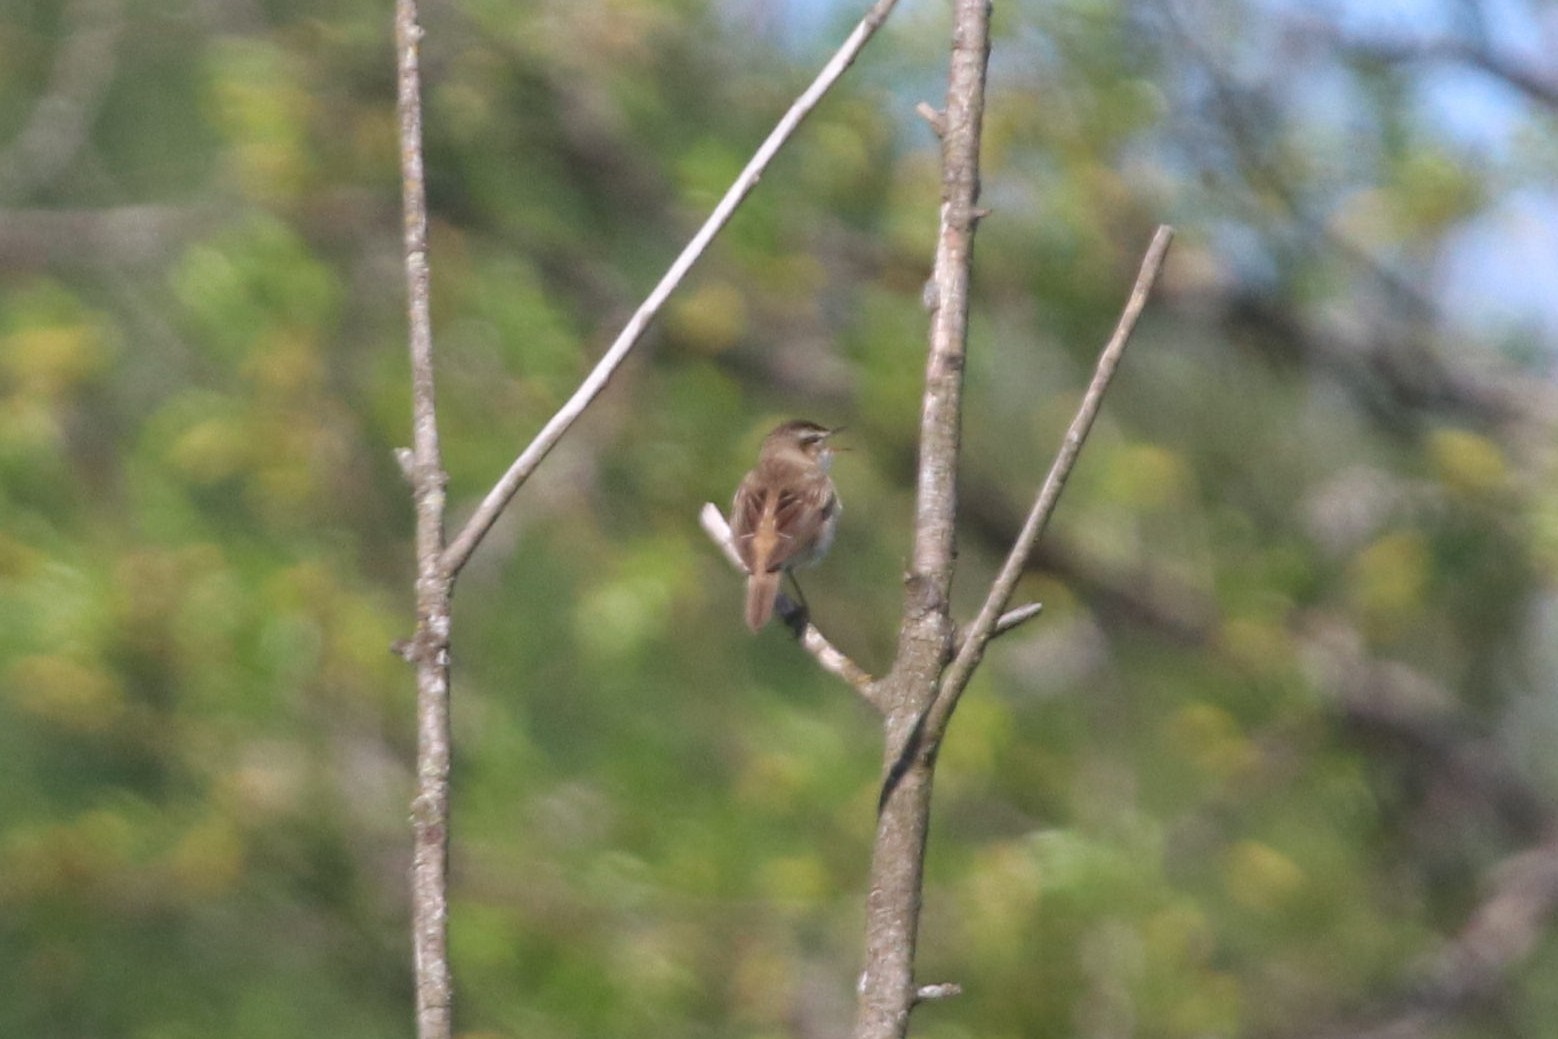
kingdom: Animalia
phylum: Chordata
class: Aves
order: Passeriformes
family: Acrocephalidae
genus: Acrocephalus
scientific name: Acrocephalus schoenobaenus
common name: Sedge warbler
